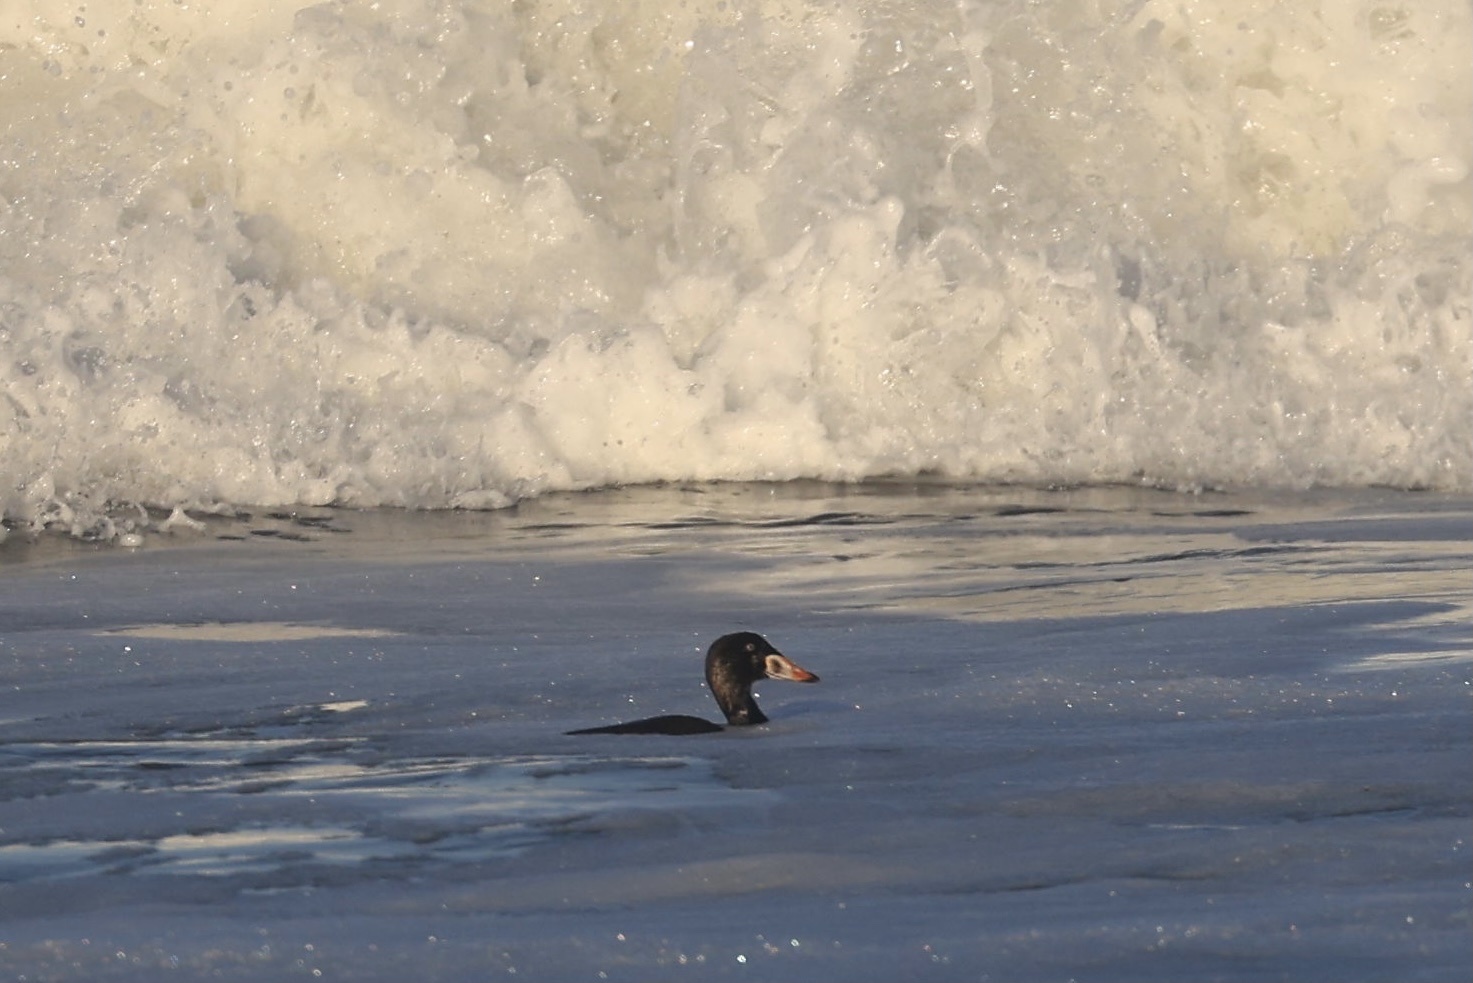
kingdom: Animalia
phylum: Chordata
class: Aves
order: Anseriformes
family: Anatidae
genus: Melanitta
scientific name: Melanitta perspicillata
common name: Surf scoter
